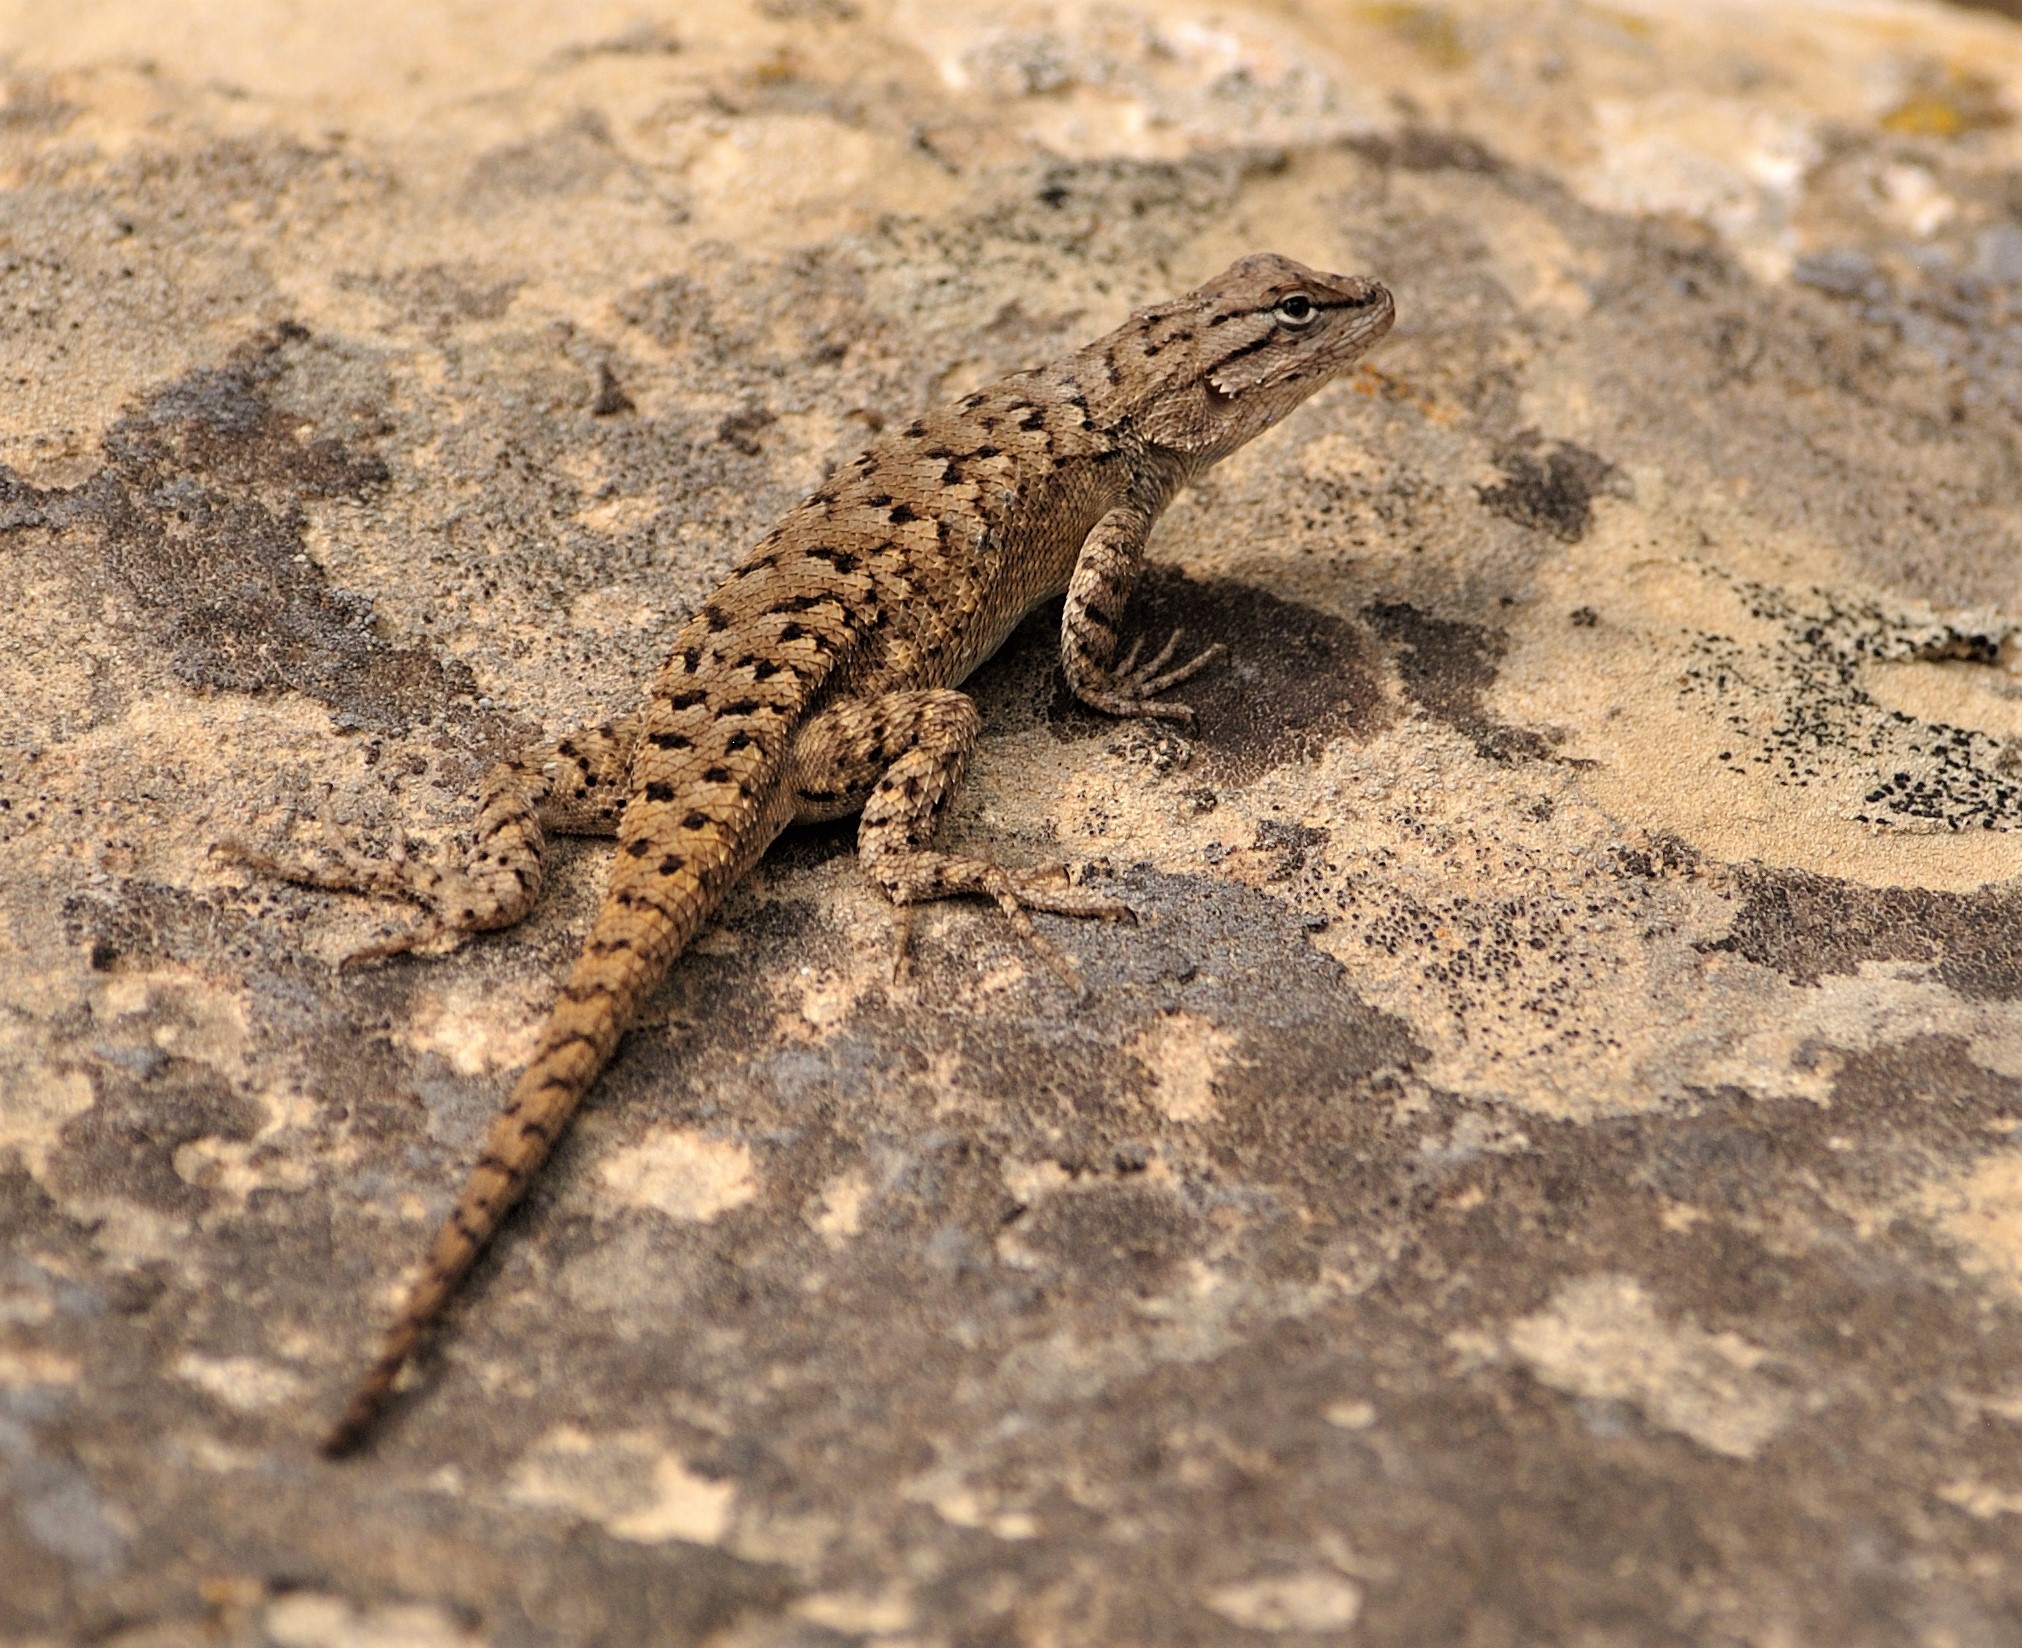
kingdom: Animalia
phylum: Chordata
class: Squamata
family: Phrynosomatidae
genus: Sceloporus
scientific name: Sceloporus tristichus
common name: Plateau fence lizard
